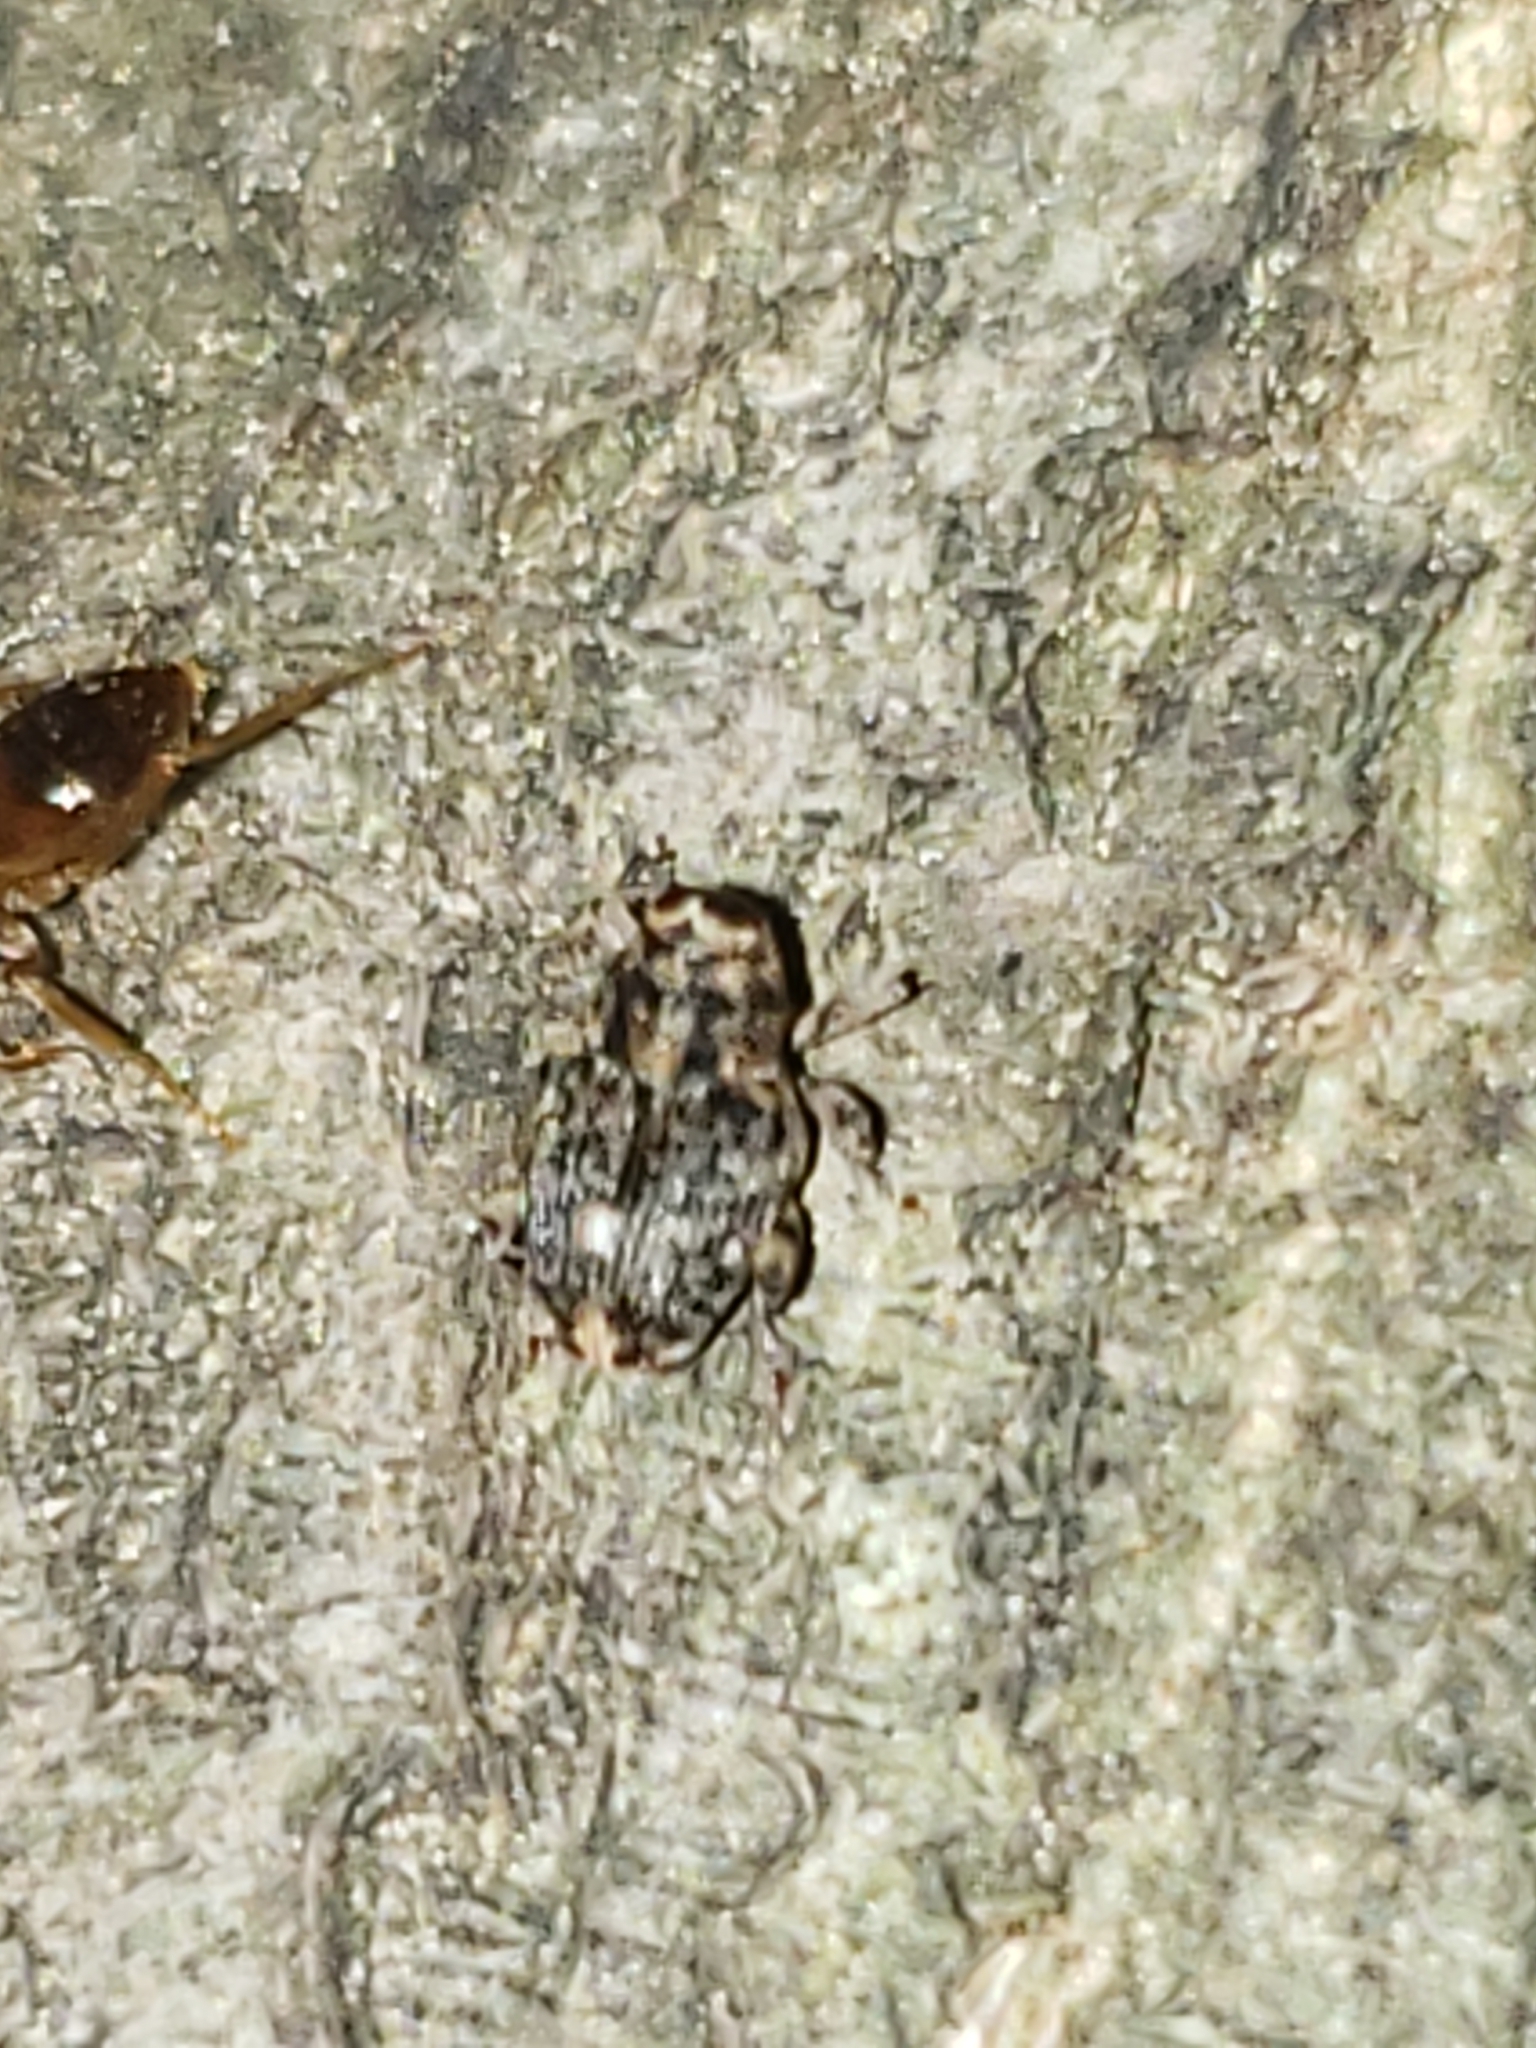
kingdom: Animalia
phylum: Arthropoda
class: Insecta
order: Coleoptera
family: Curculionidae
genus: Lechriops
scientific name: Lechriops oculatus
